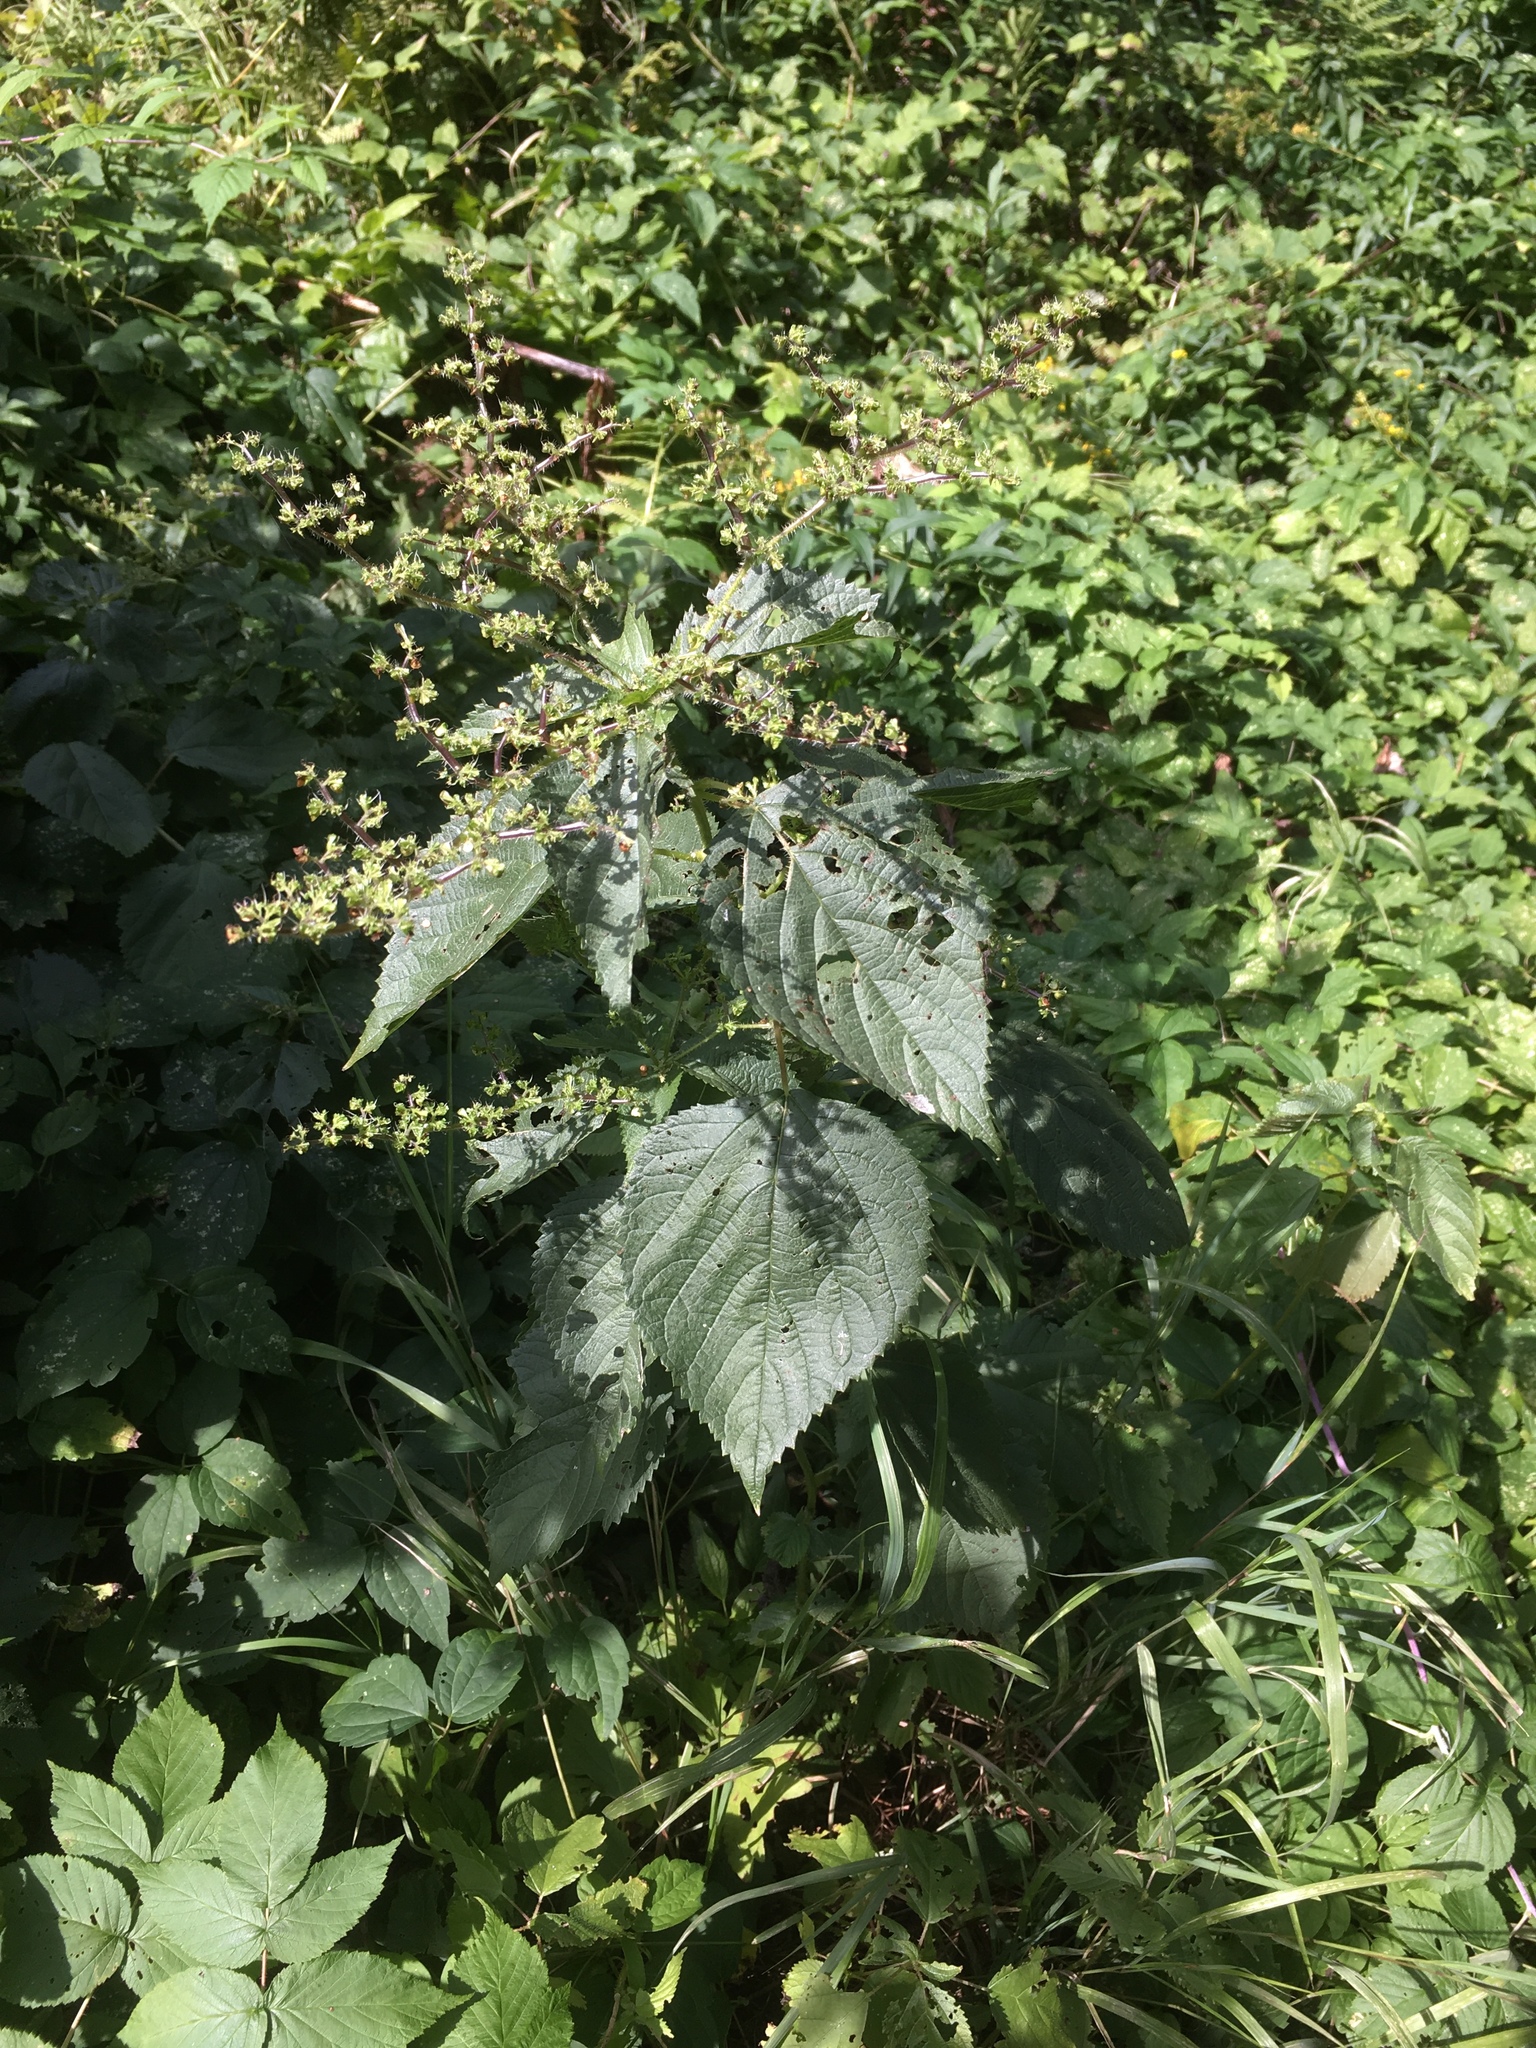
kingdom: Plantae
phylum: Tracheophyta
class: Magnoliopsida
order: Rosales
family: Urticaceae
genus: Laportea
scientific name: Laportea canadensis
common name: Canada nettle
